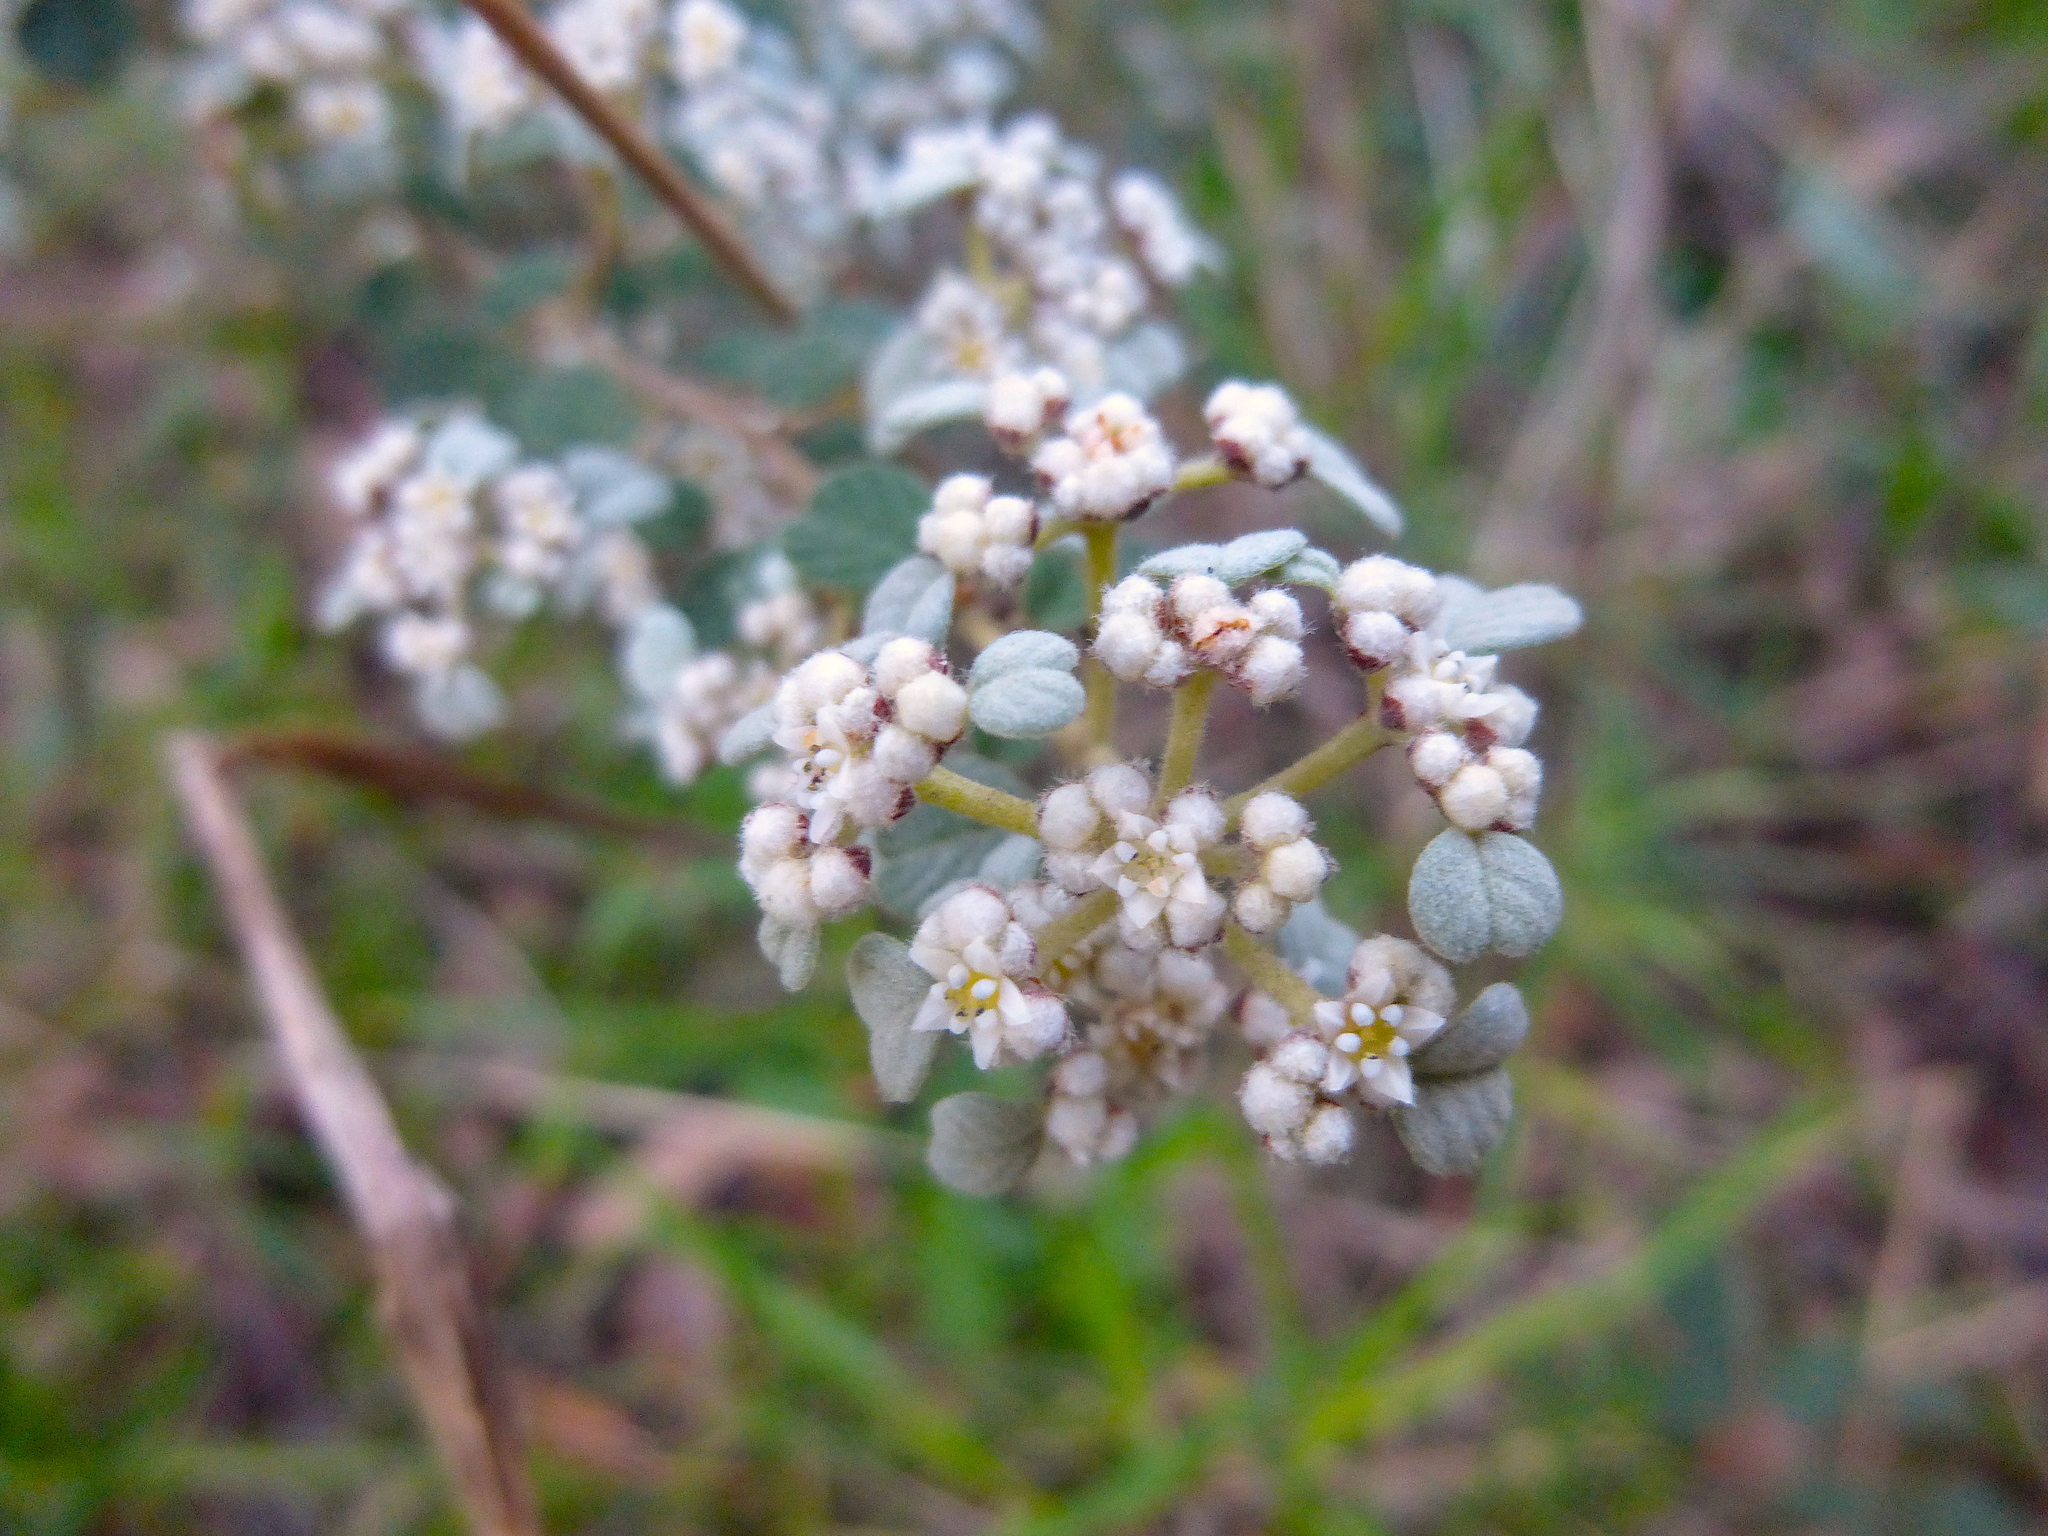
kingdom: Plantae
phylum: Tracheophyta
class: Magnoliopsida
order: Rosales
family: Rhamnaceae
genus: Spyridium
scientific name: Spyridium parvifolium
